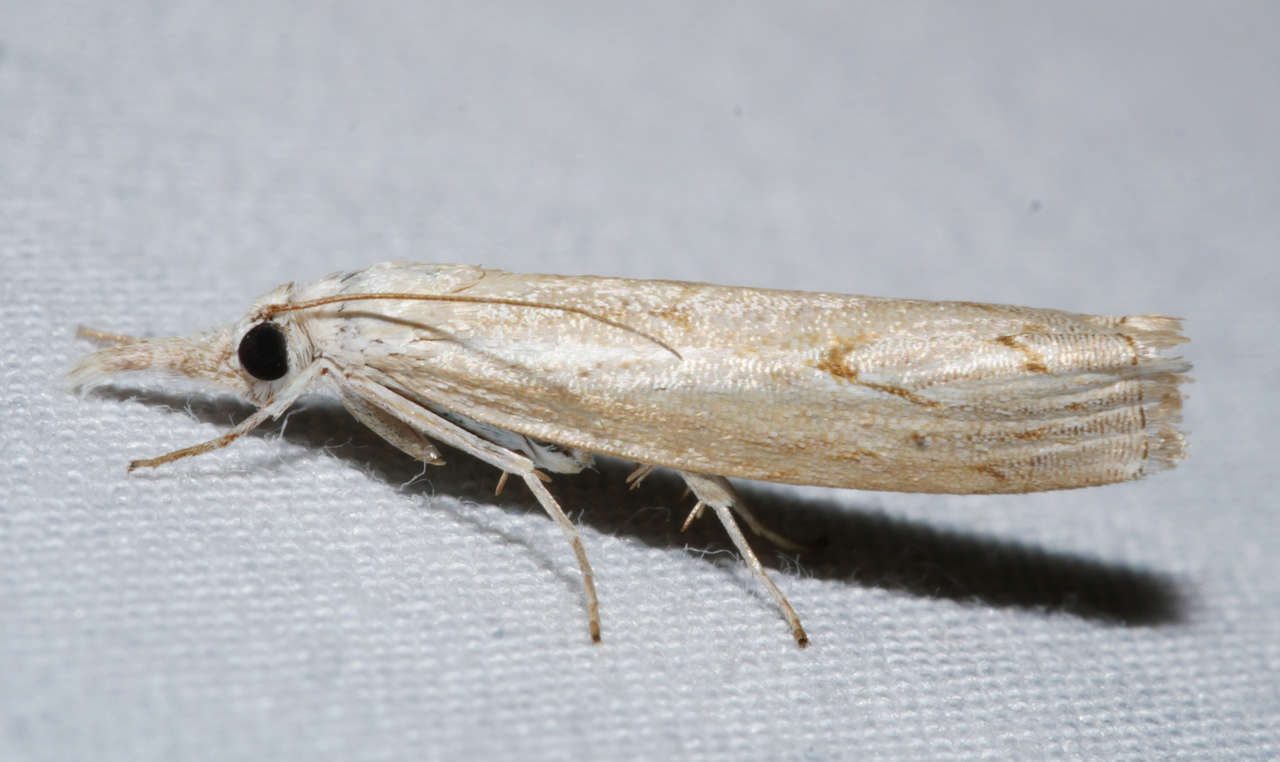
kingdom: Animalia
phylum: Arthropoda
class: Insecta
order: Lepidoptera
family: Crambidae
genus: Culladia
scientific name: Culladia cuneiferellus
